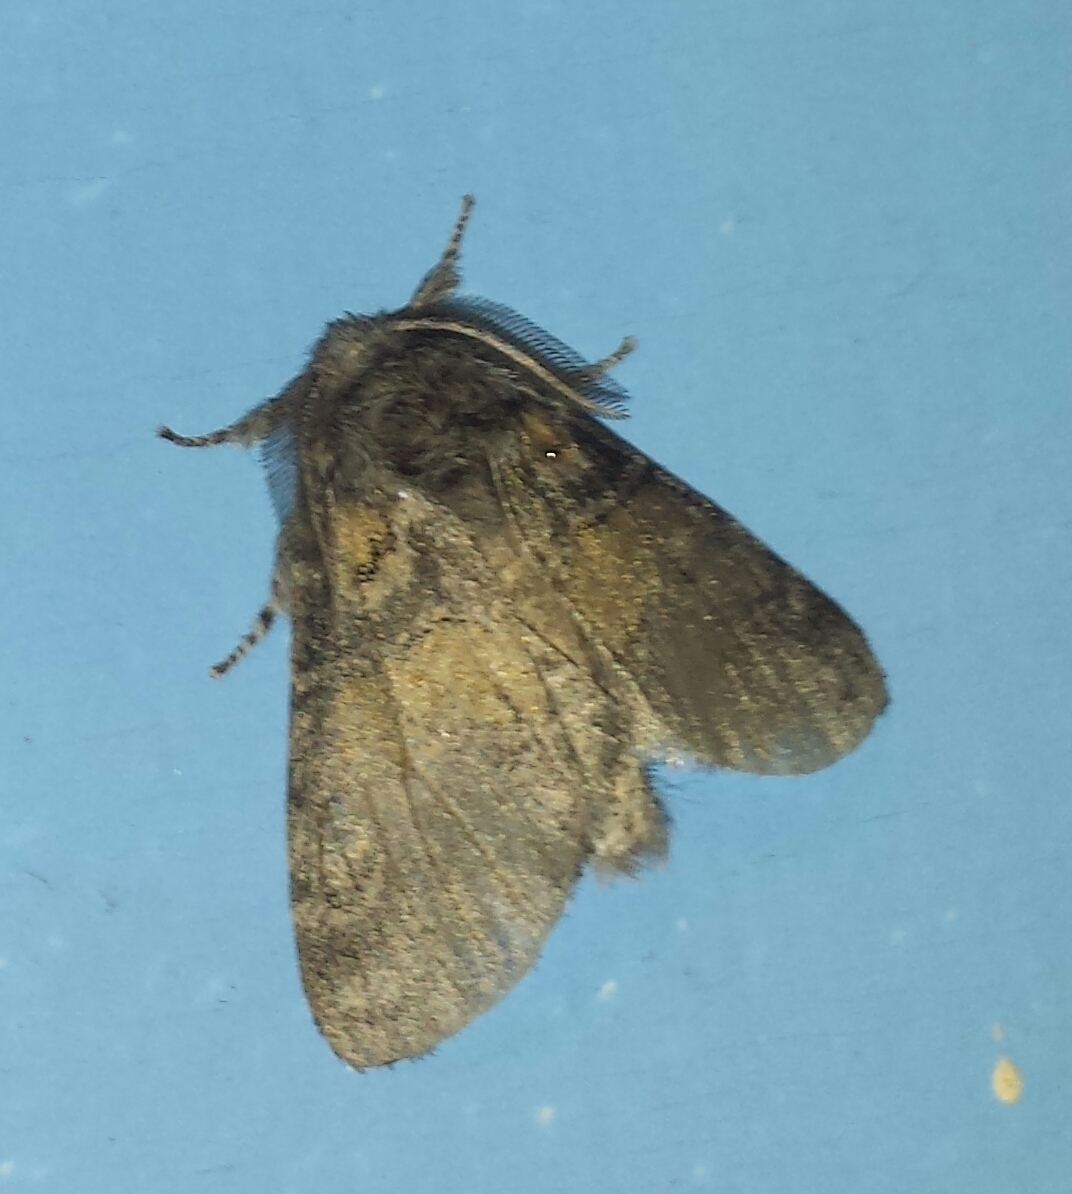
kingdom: Animalia
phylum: Arthropoda
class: Insecta
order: Lepidoptera
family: Notodontidae
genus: Gluphisia
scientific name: Gluphisia septentrionis
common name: Common gluphisia
